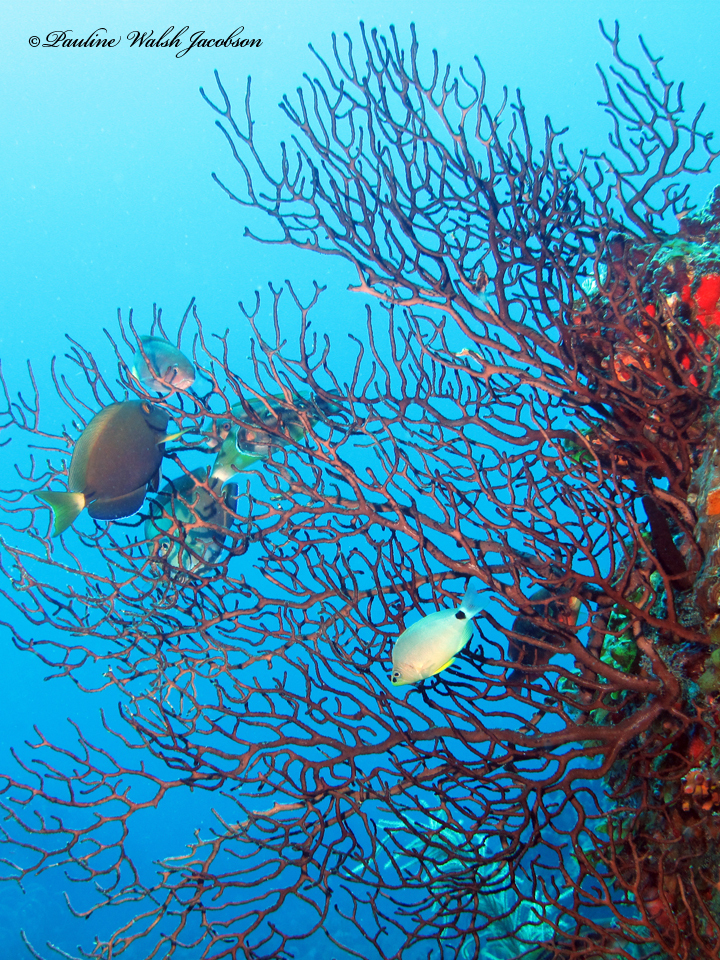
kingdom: Animalia
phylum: Chordata
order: Perciformes
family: Acanthuridae
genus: Acanthurus
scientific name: Acanthurus bahianus
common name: Ocean surgeon
